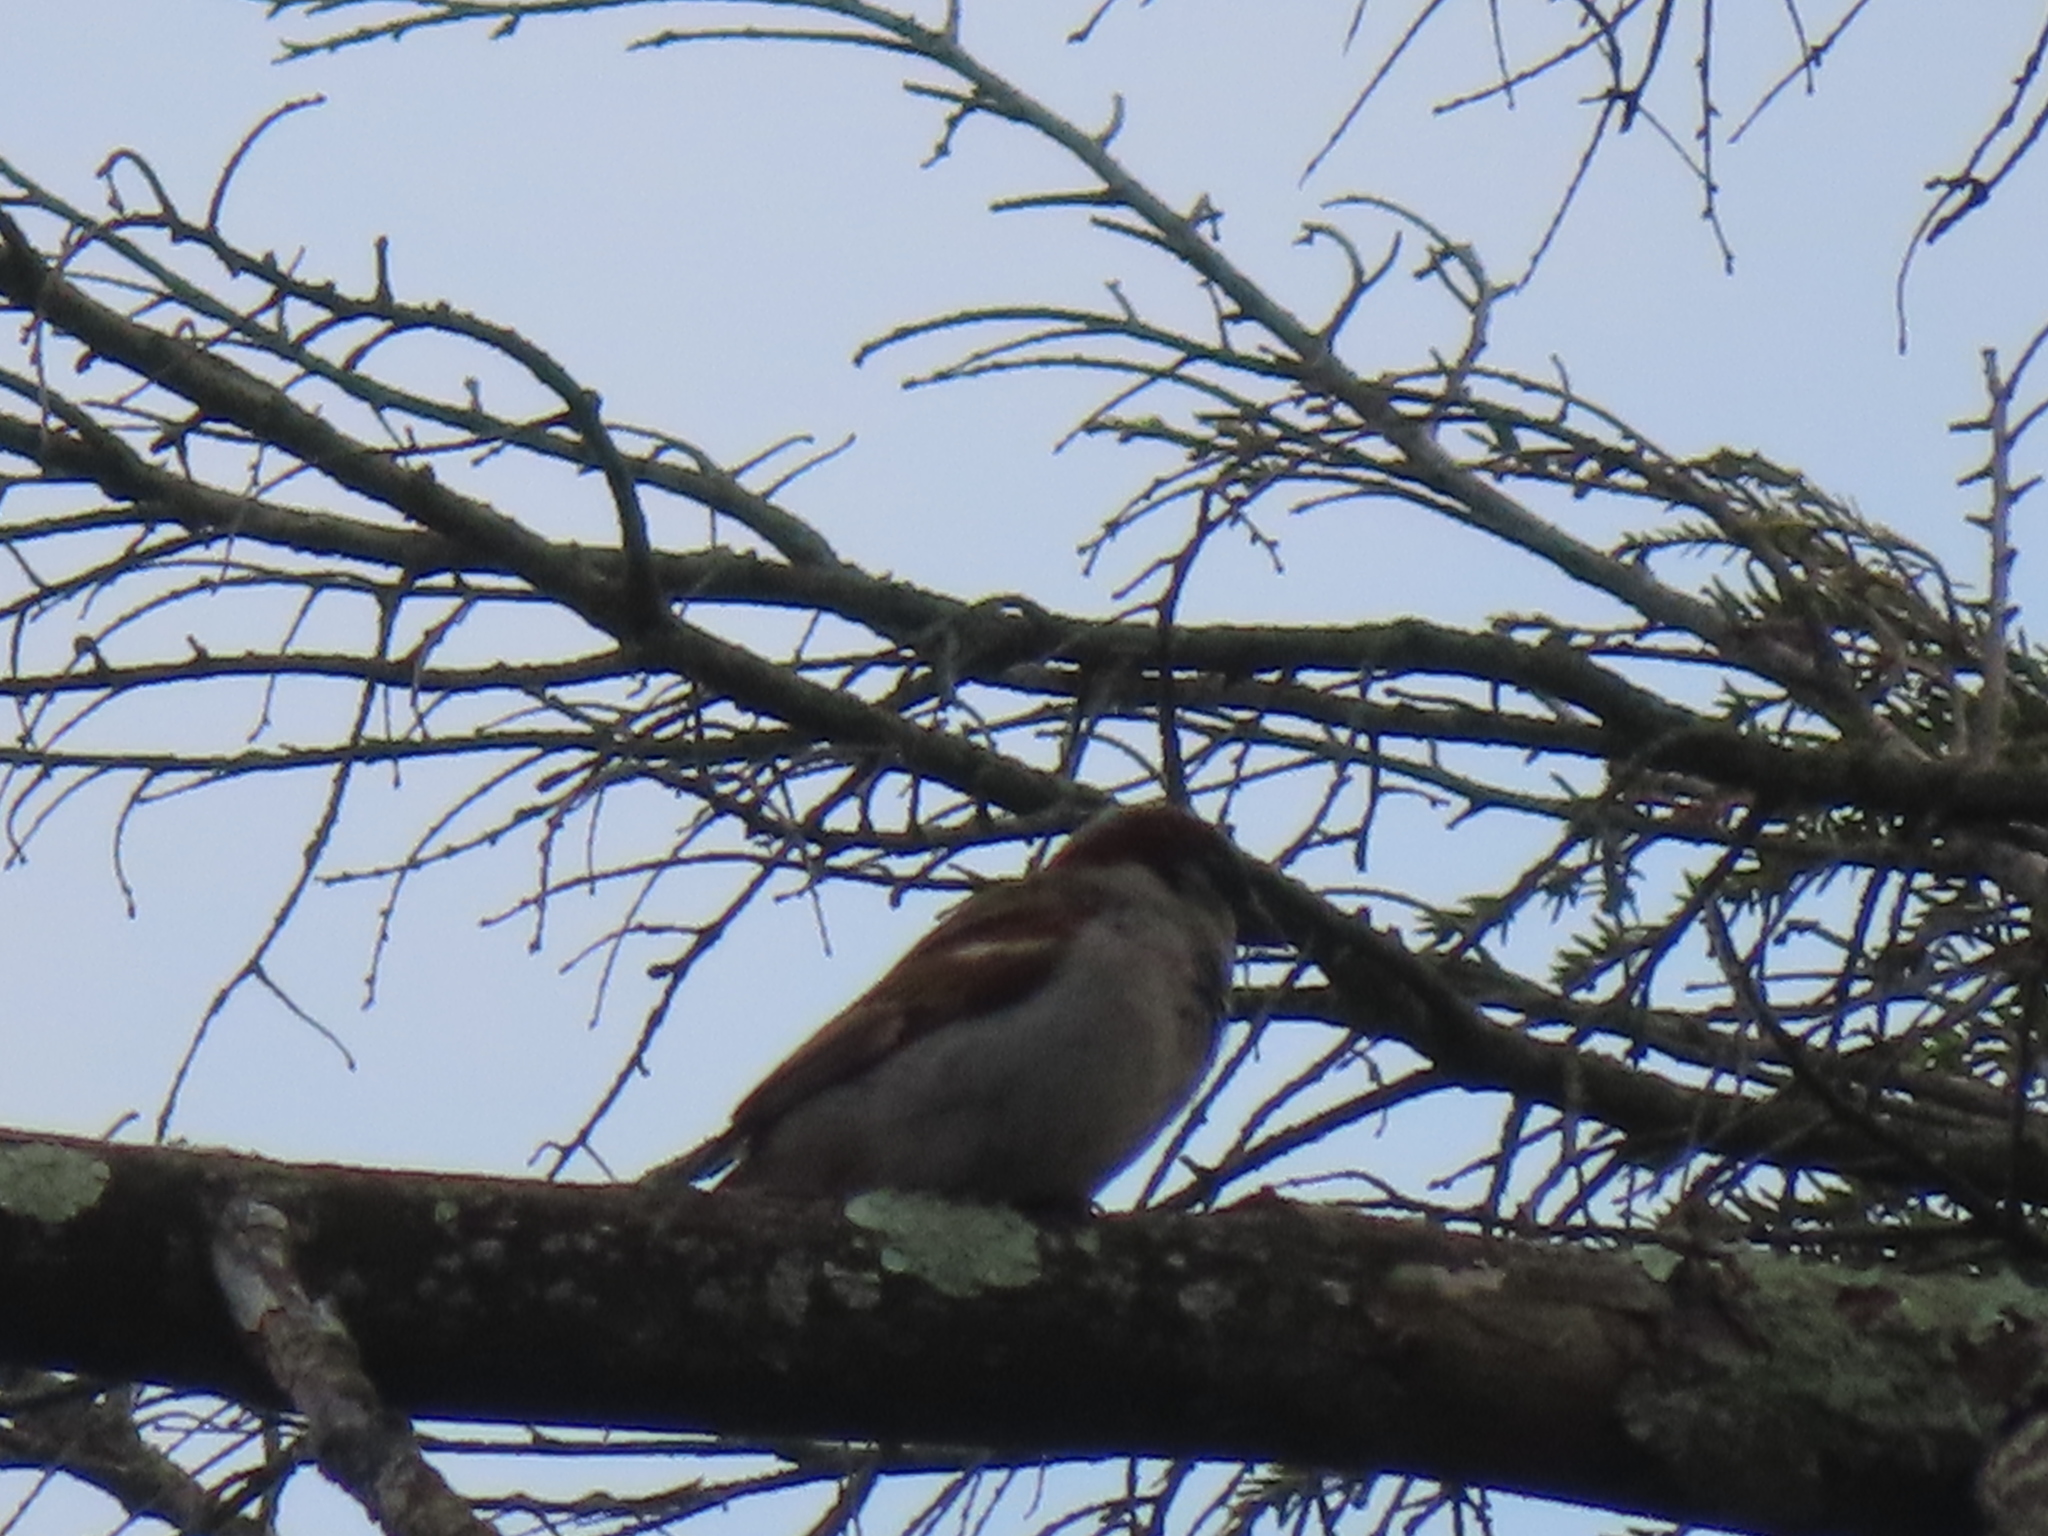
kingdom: Animalia
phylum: Chordata
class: Aves
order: Passeriformes
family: Passeridae
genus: Passer
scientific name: Passer domesticus
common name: House sparrow
